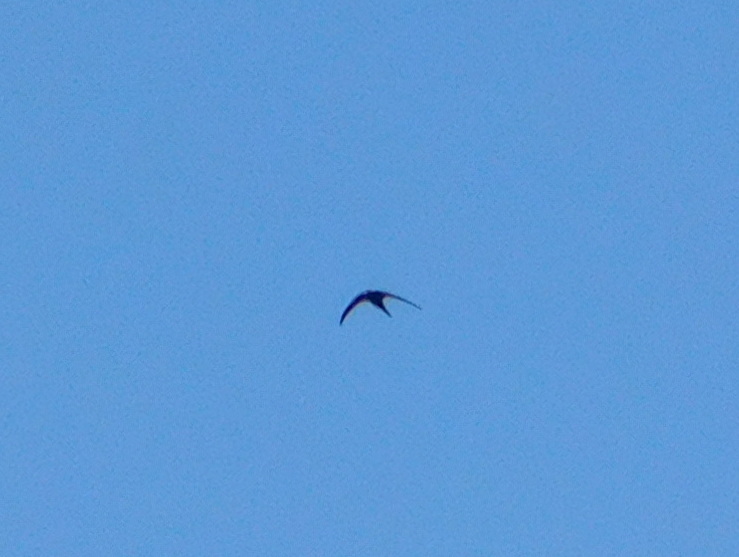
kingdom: Animalia
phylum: Chordata
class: Aves
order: Apodiformes
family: Apodidae
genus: Apus
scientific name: Apus apus
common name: Common swift
